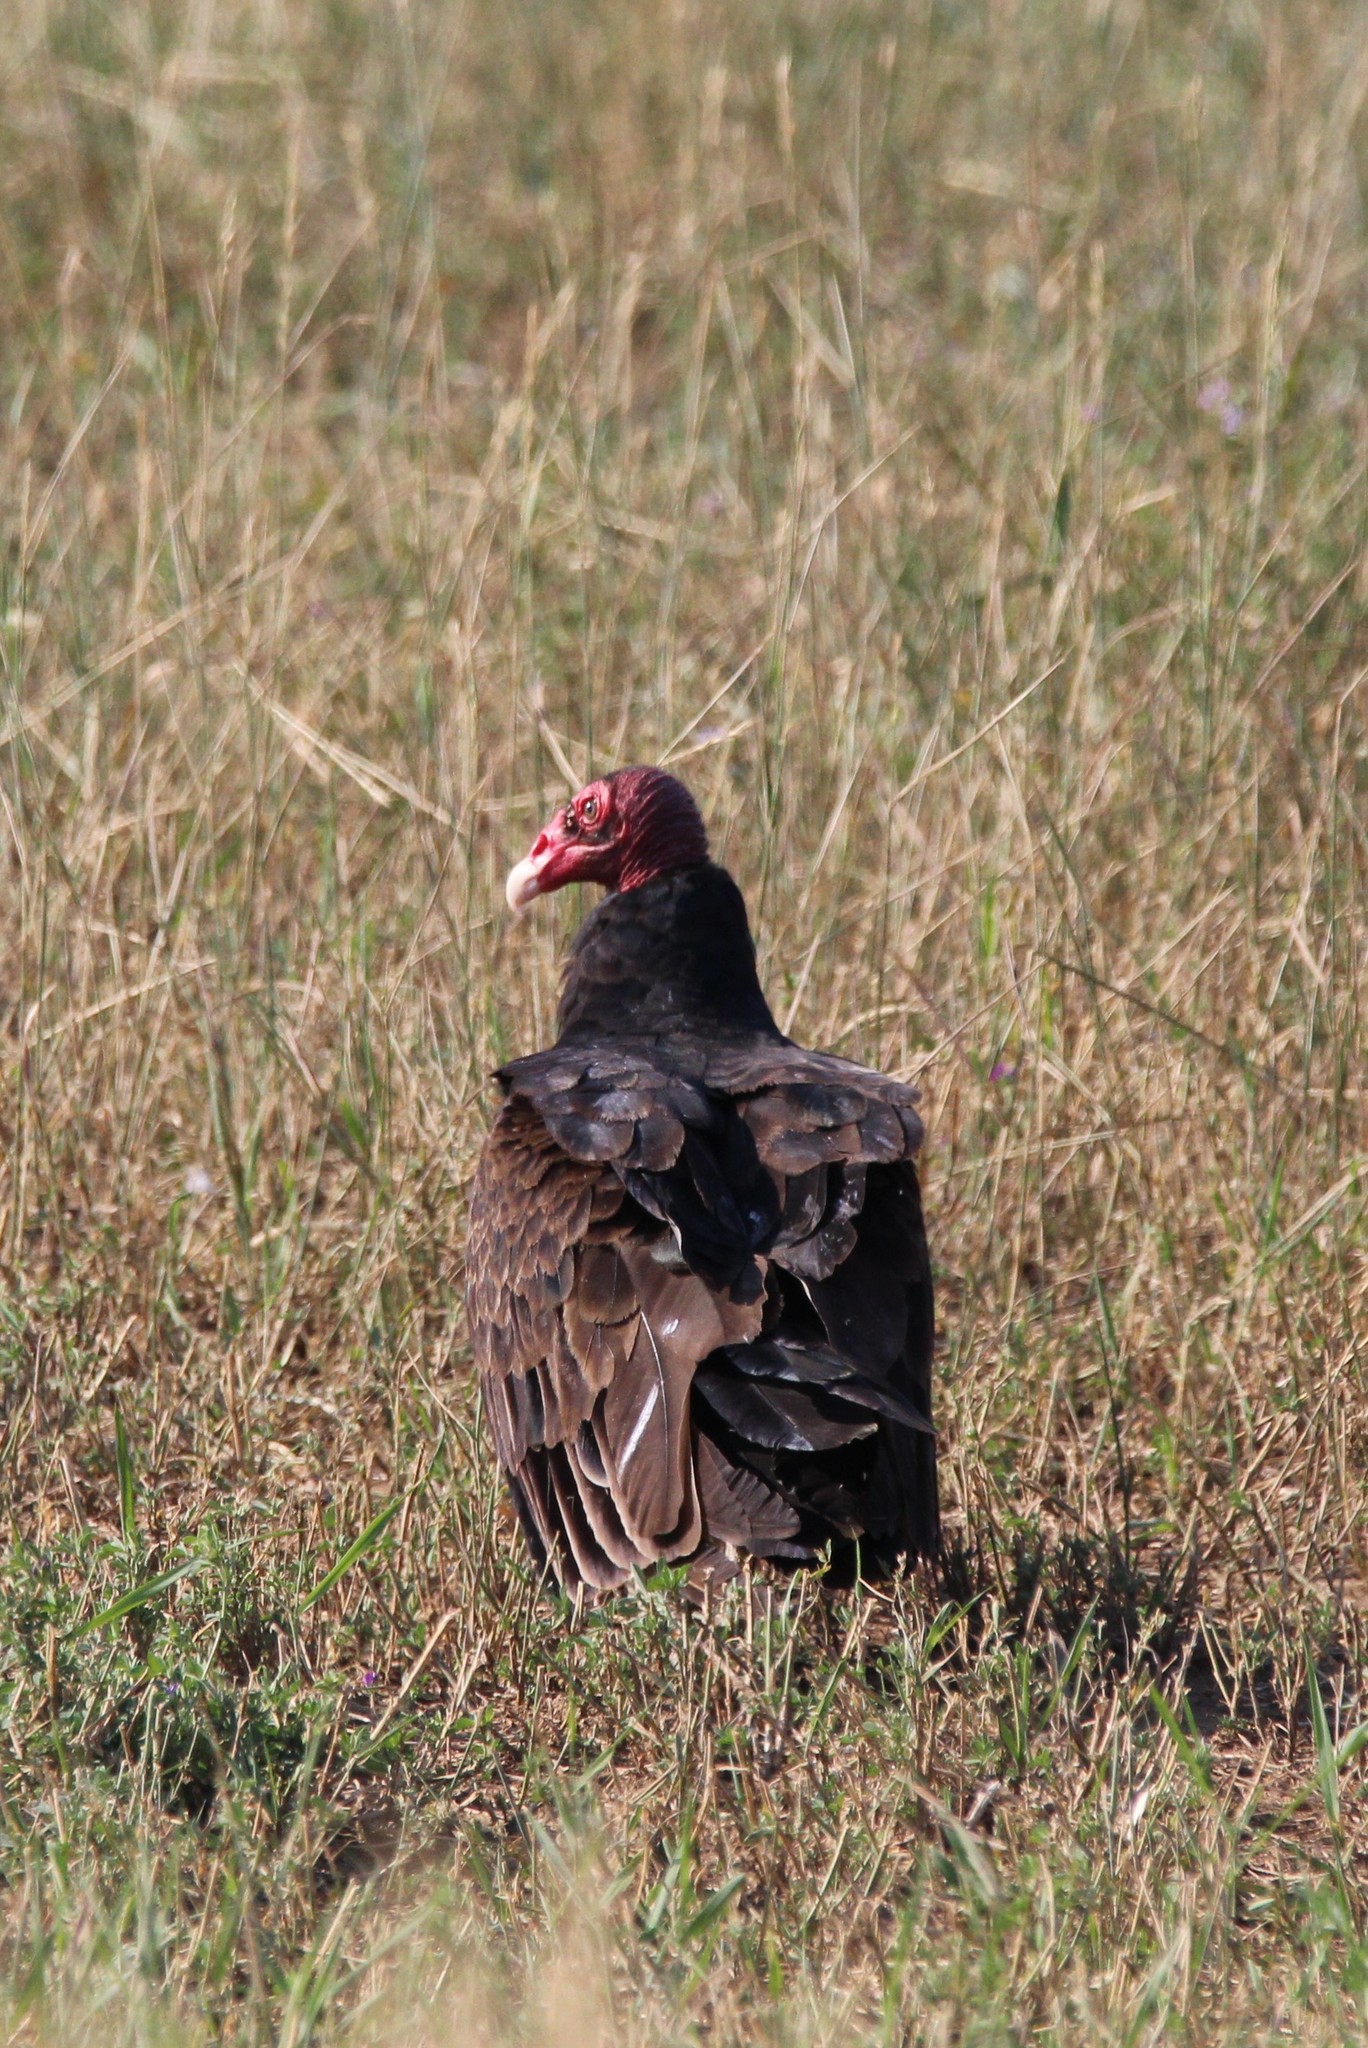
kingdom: Animalia
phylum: Chordata
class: Aves
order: Accipitriformes
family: Cathartidae
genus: Cathartes
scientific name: Cathartes aura
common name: Turkey vulture
